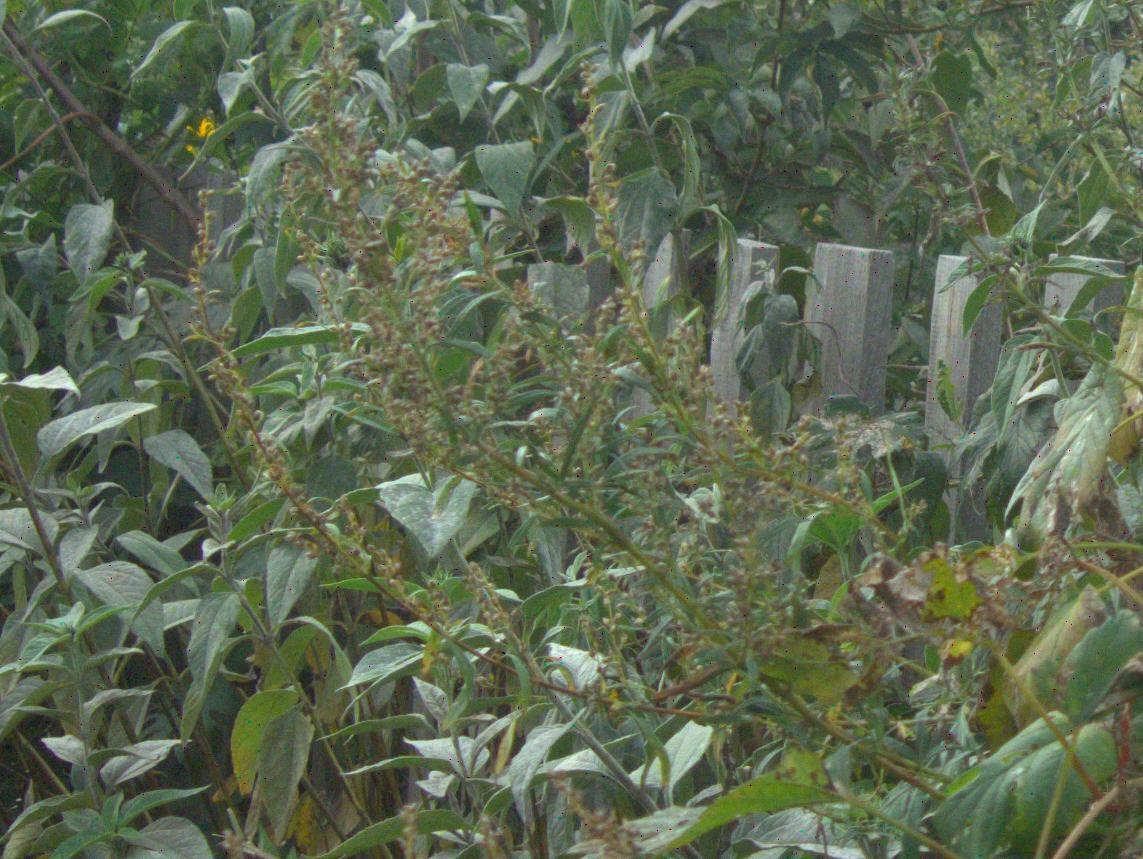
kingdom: Plantae
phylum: Tracheophyta
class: Magnoliopsida
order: Asterales
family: Asteraceae
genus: Artemisia
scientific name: Artemisia vulgaris
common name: Mugwort
